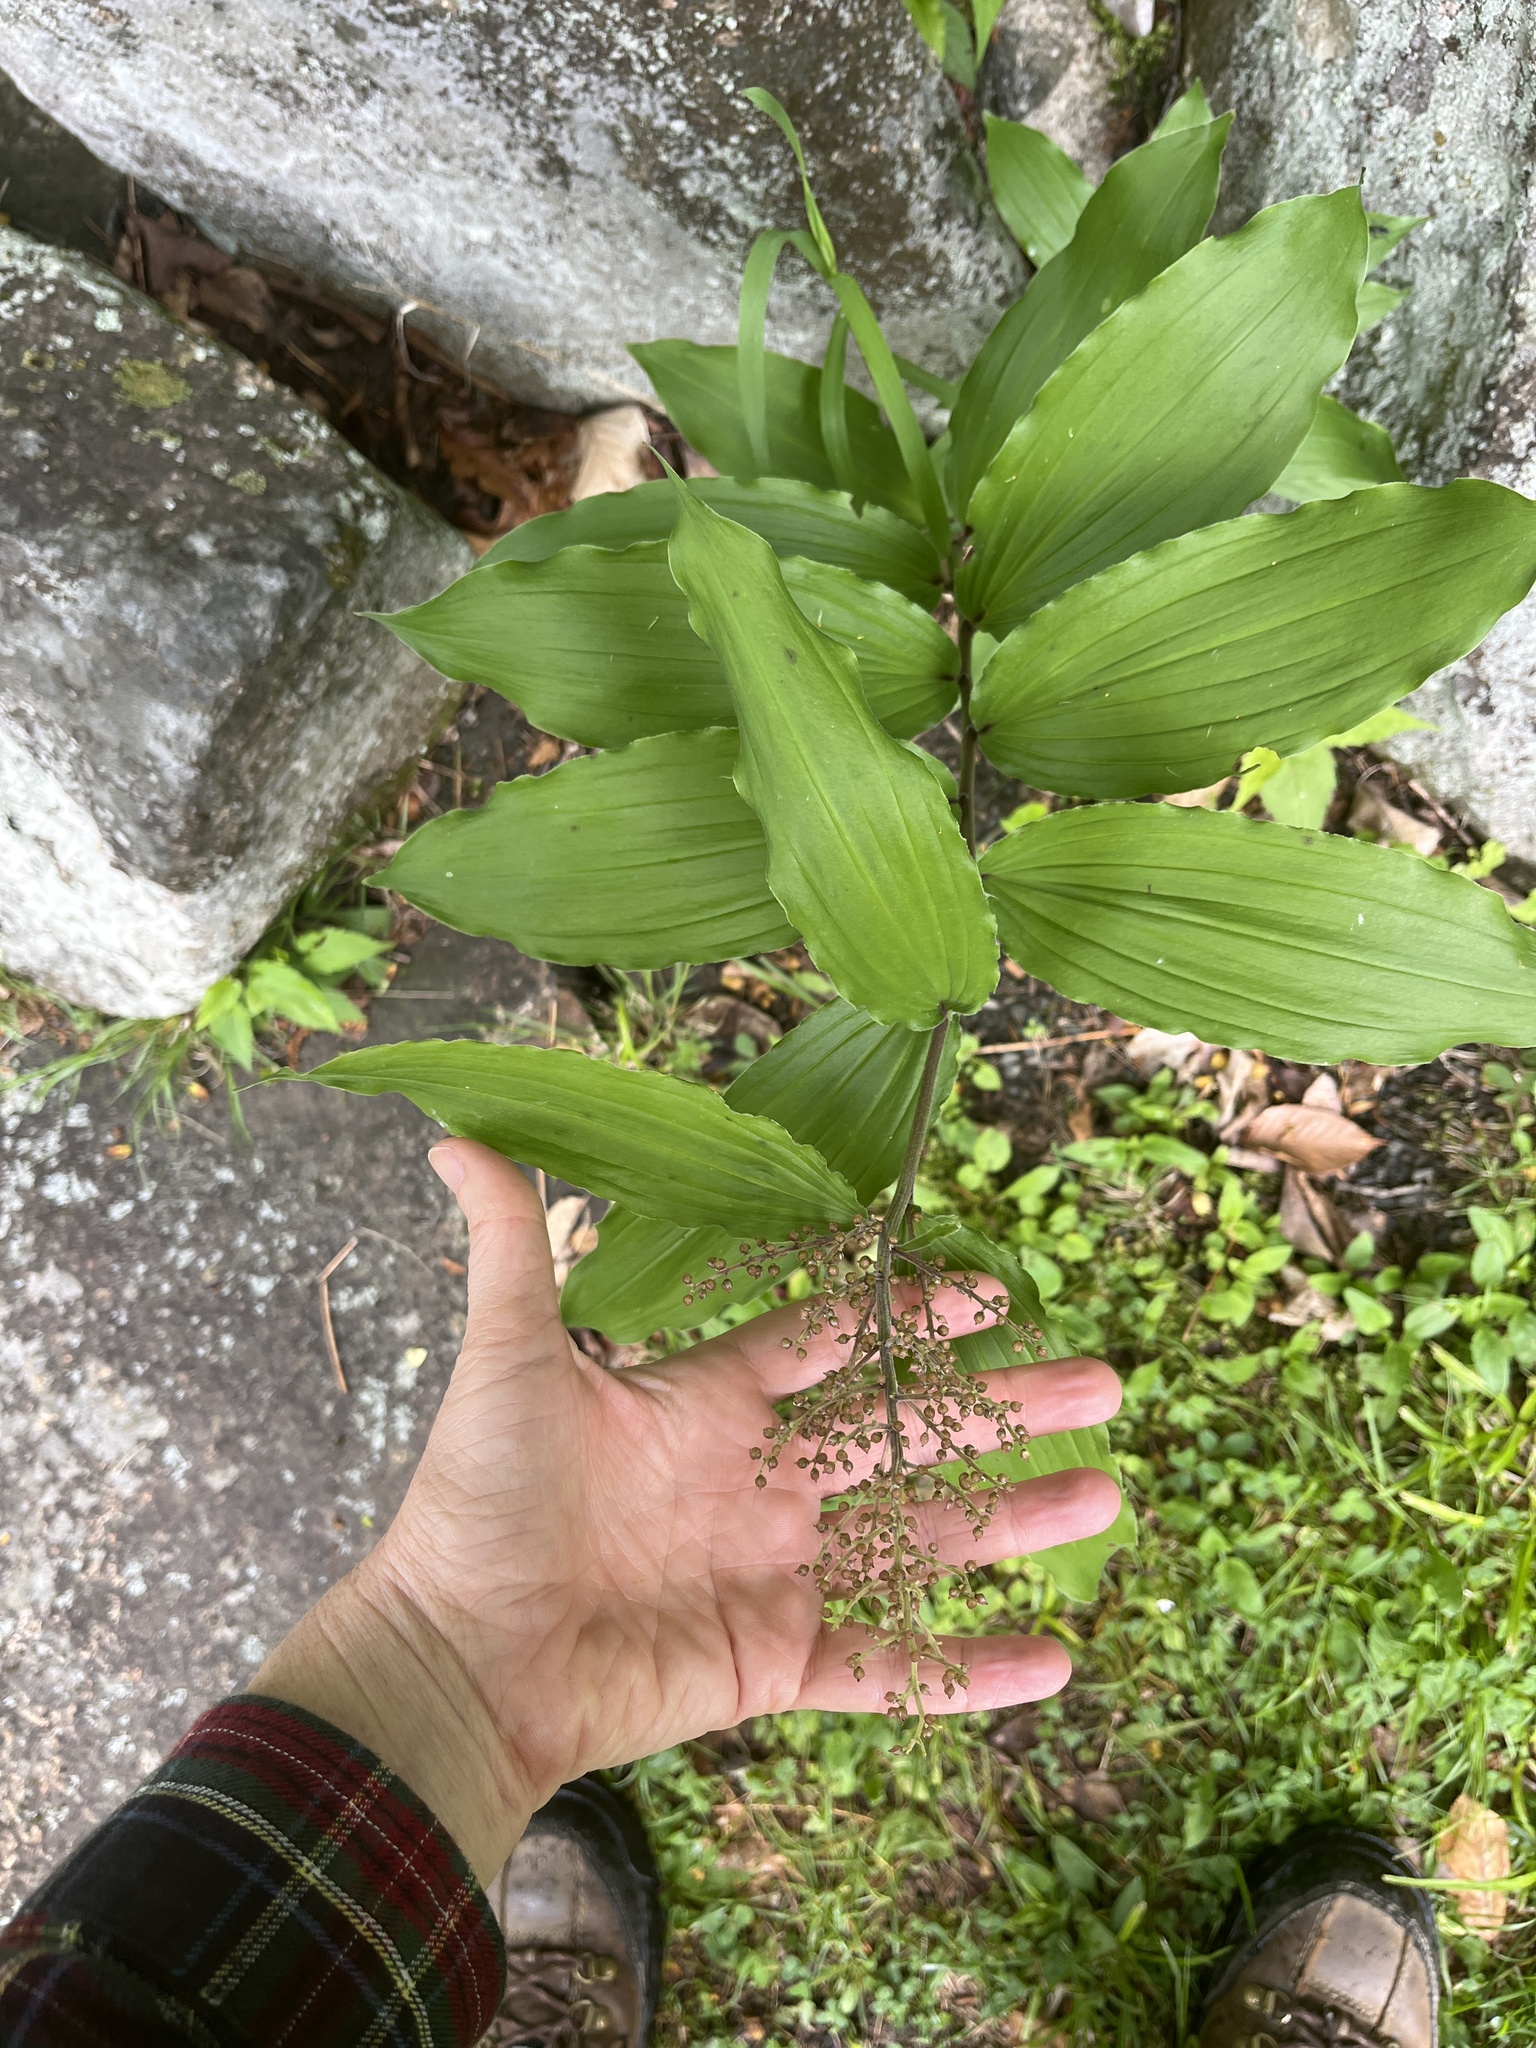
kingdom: Plantae
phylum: Tracheophyta
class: Liliopsida
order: Asparagales
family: Asparagaceae
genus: Maianthemum
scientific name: Maianthemum racemosum
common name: False spikenard
